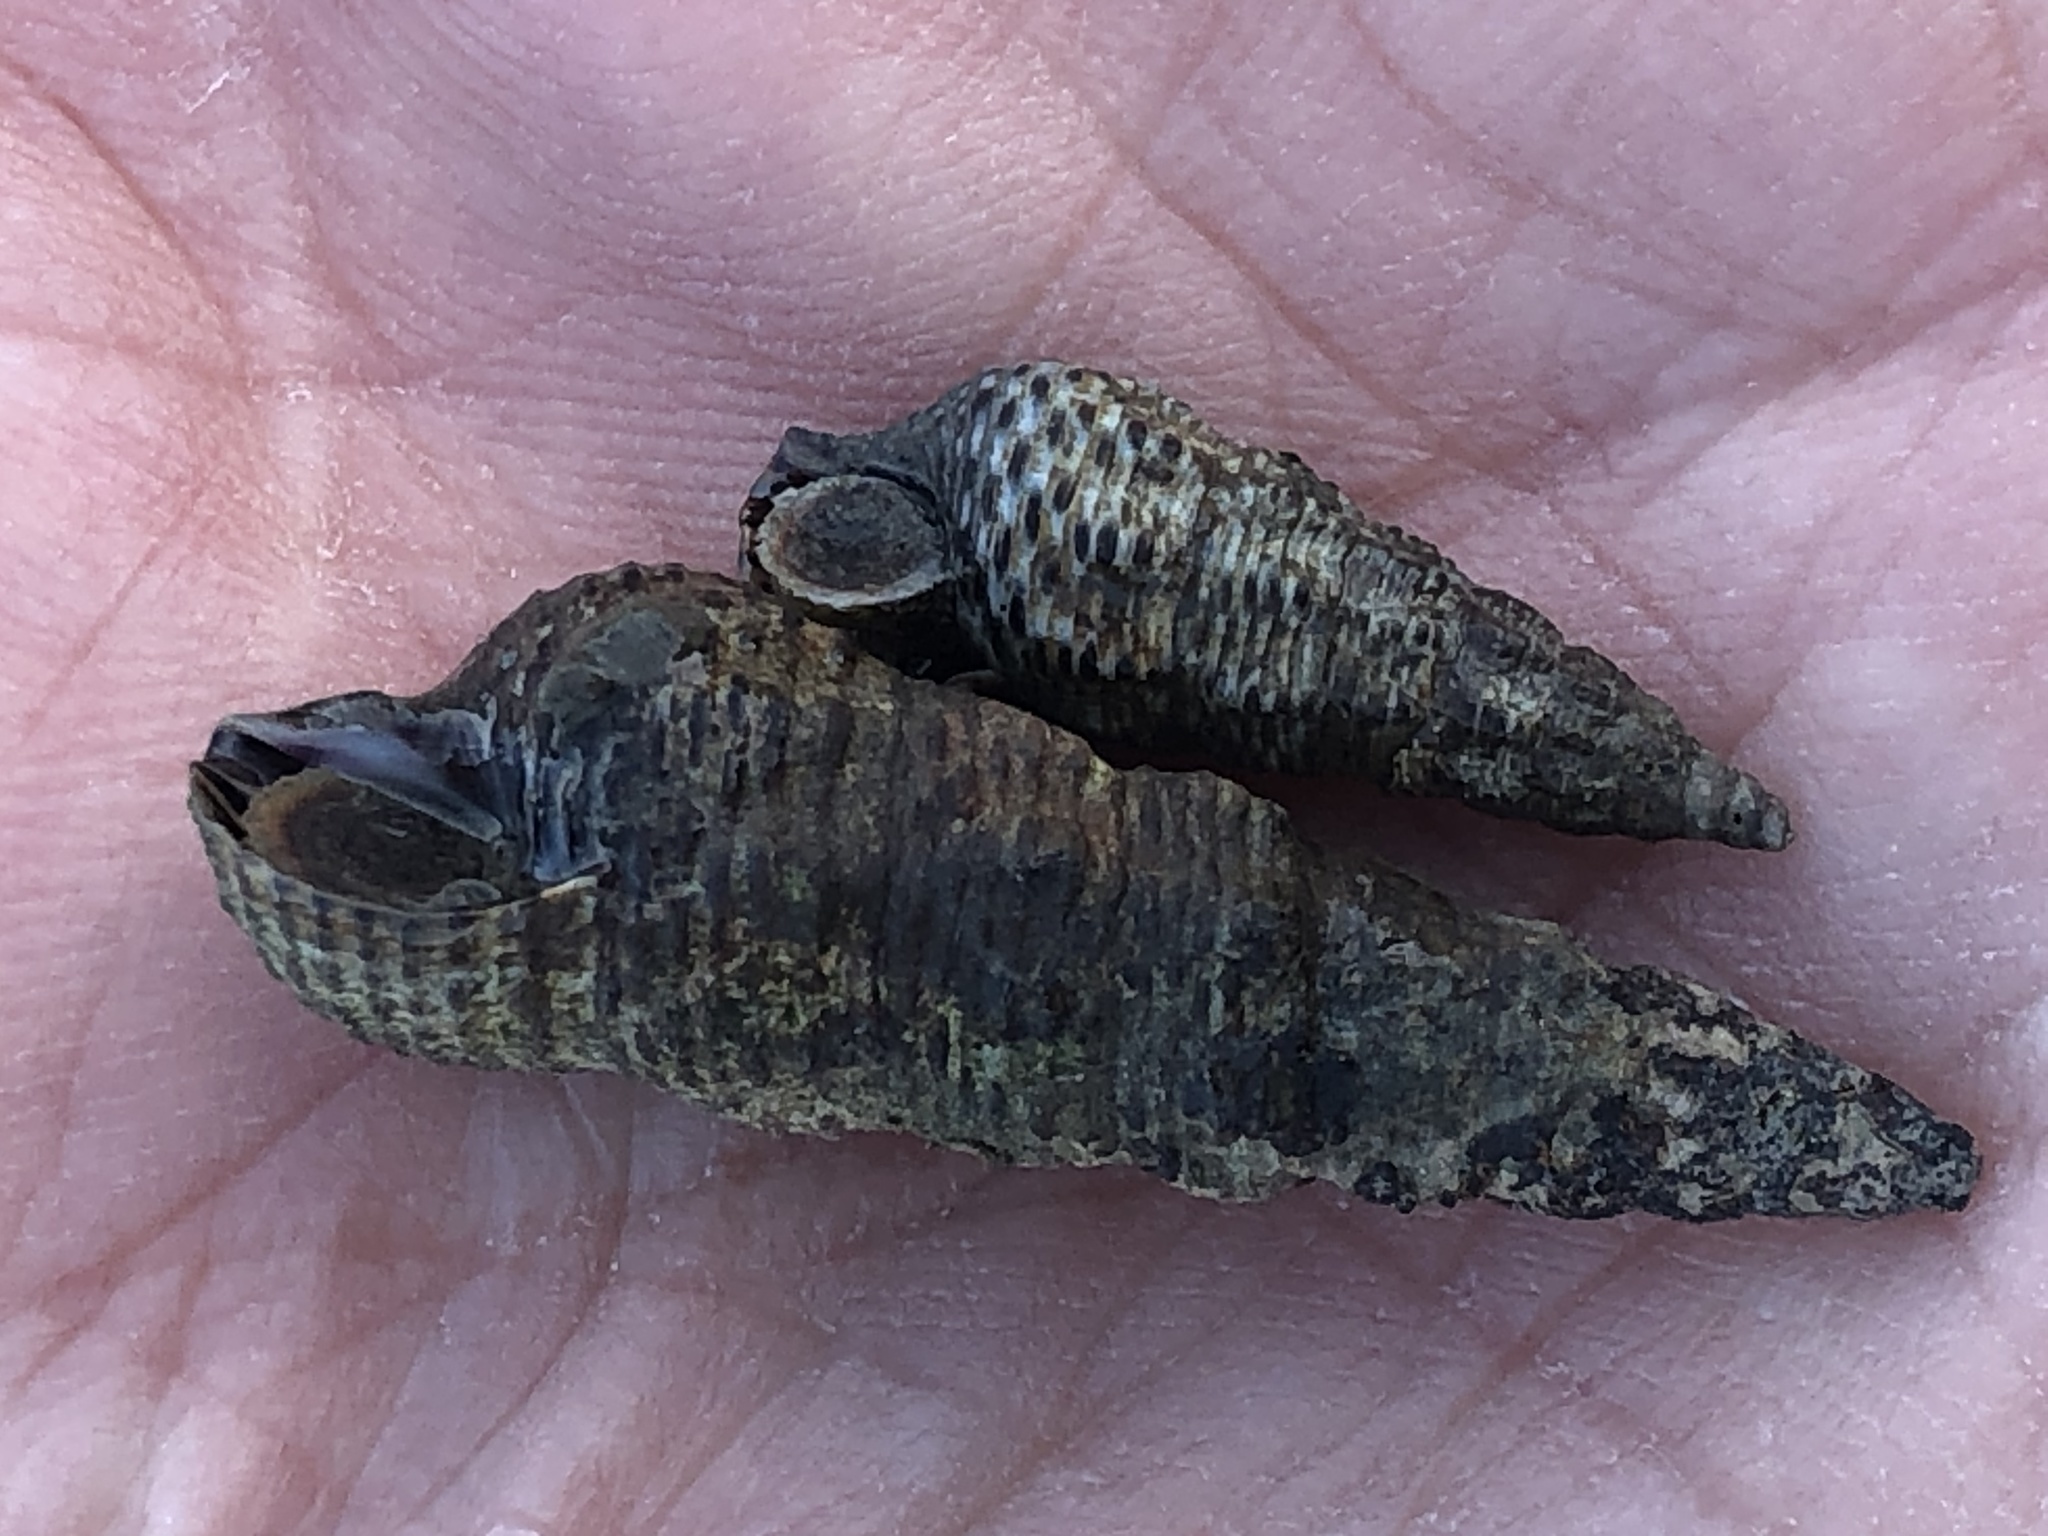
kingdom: Animalia
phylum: Mollusca
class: Gastropoda
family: Batillariidae
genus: Batillaria
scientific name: Batillaria attramentaria
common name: Japanese false cerith
